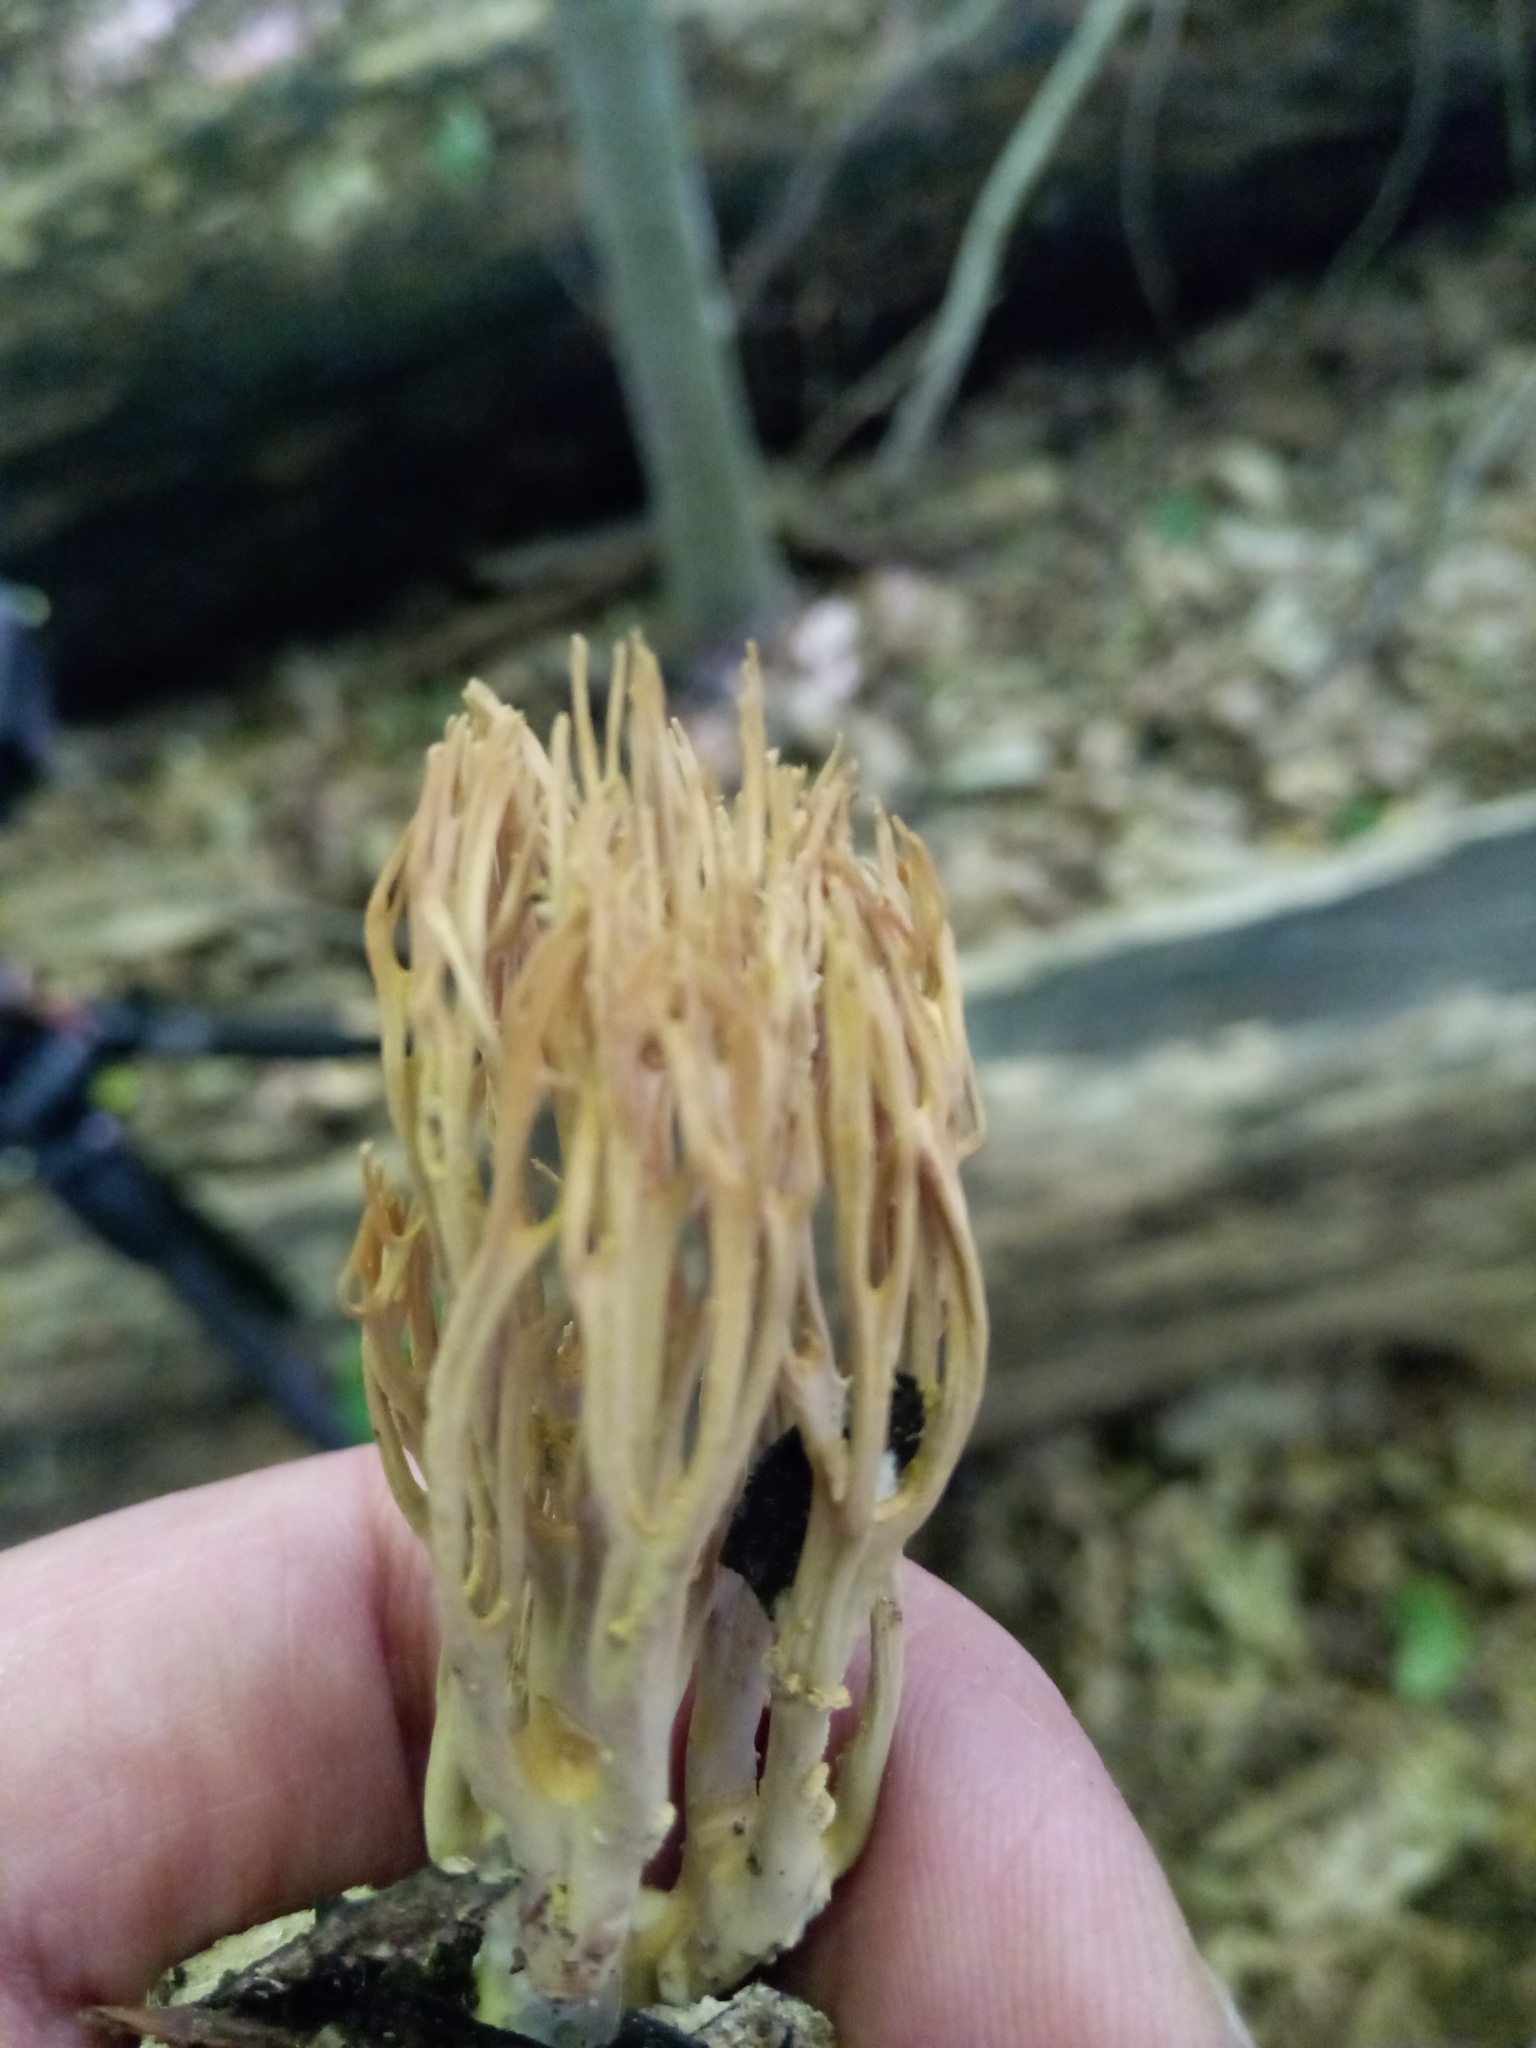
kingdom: Fungi
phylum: Basidiomycota
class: Agaricomycetes
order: Gomphales
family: Gomphaceae
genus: Ramaria
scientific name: Ramaria stricta
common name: Upright coral
